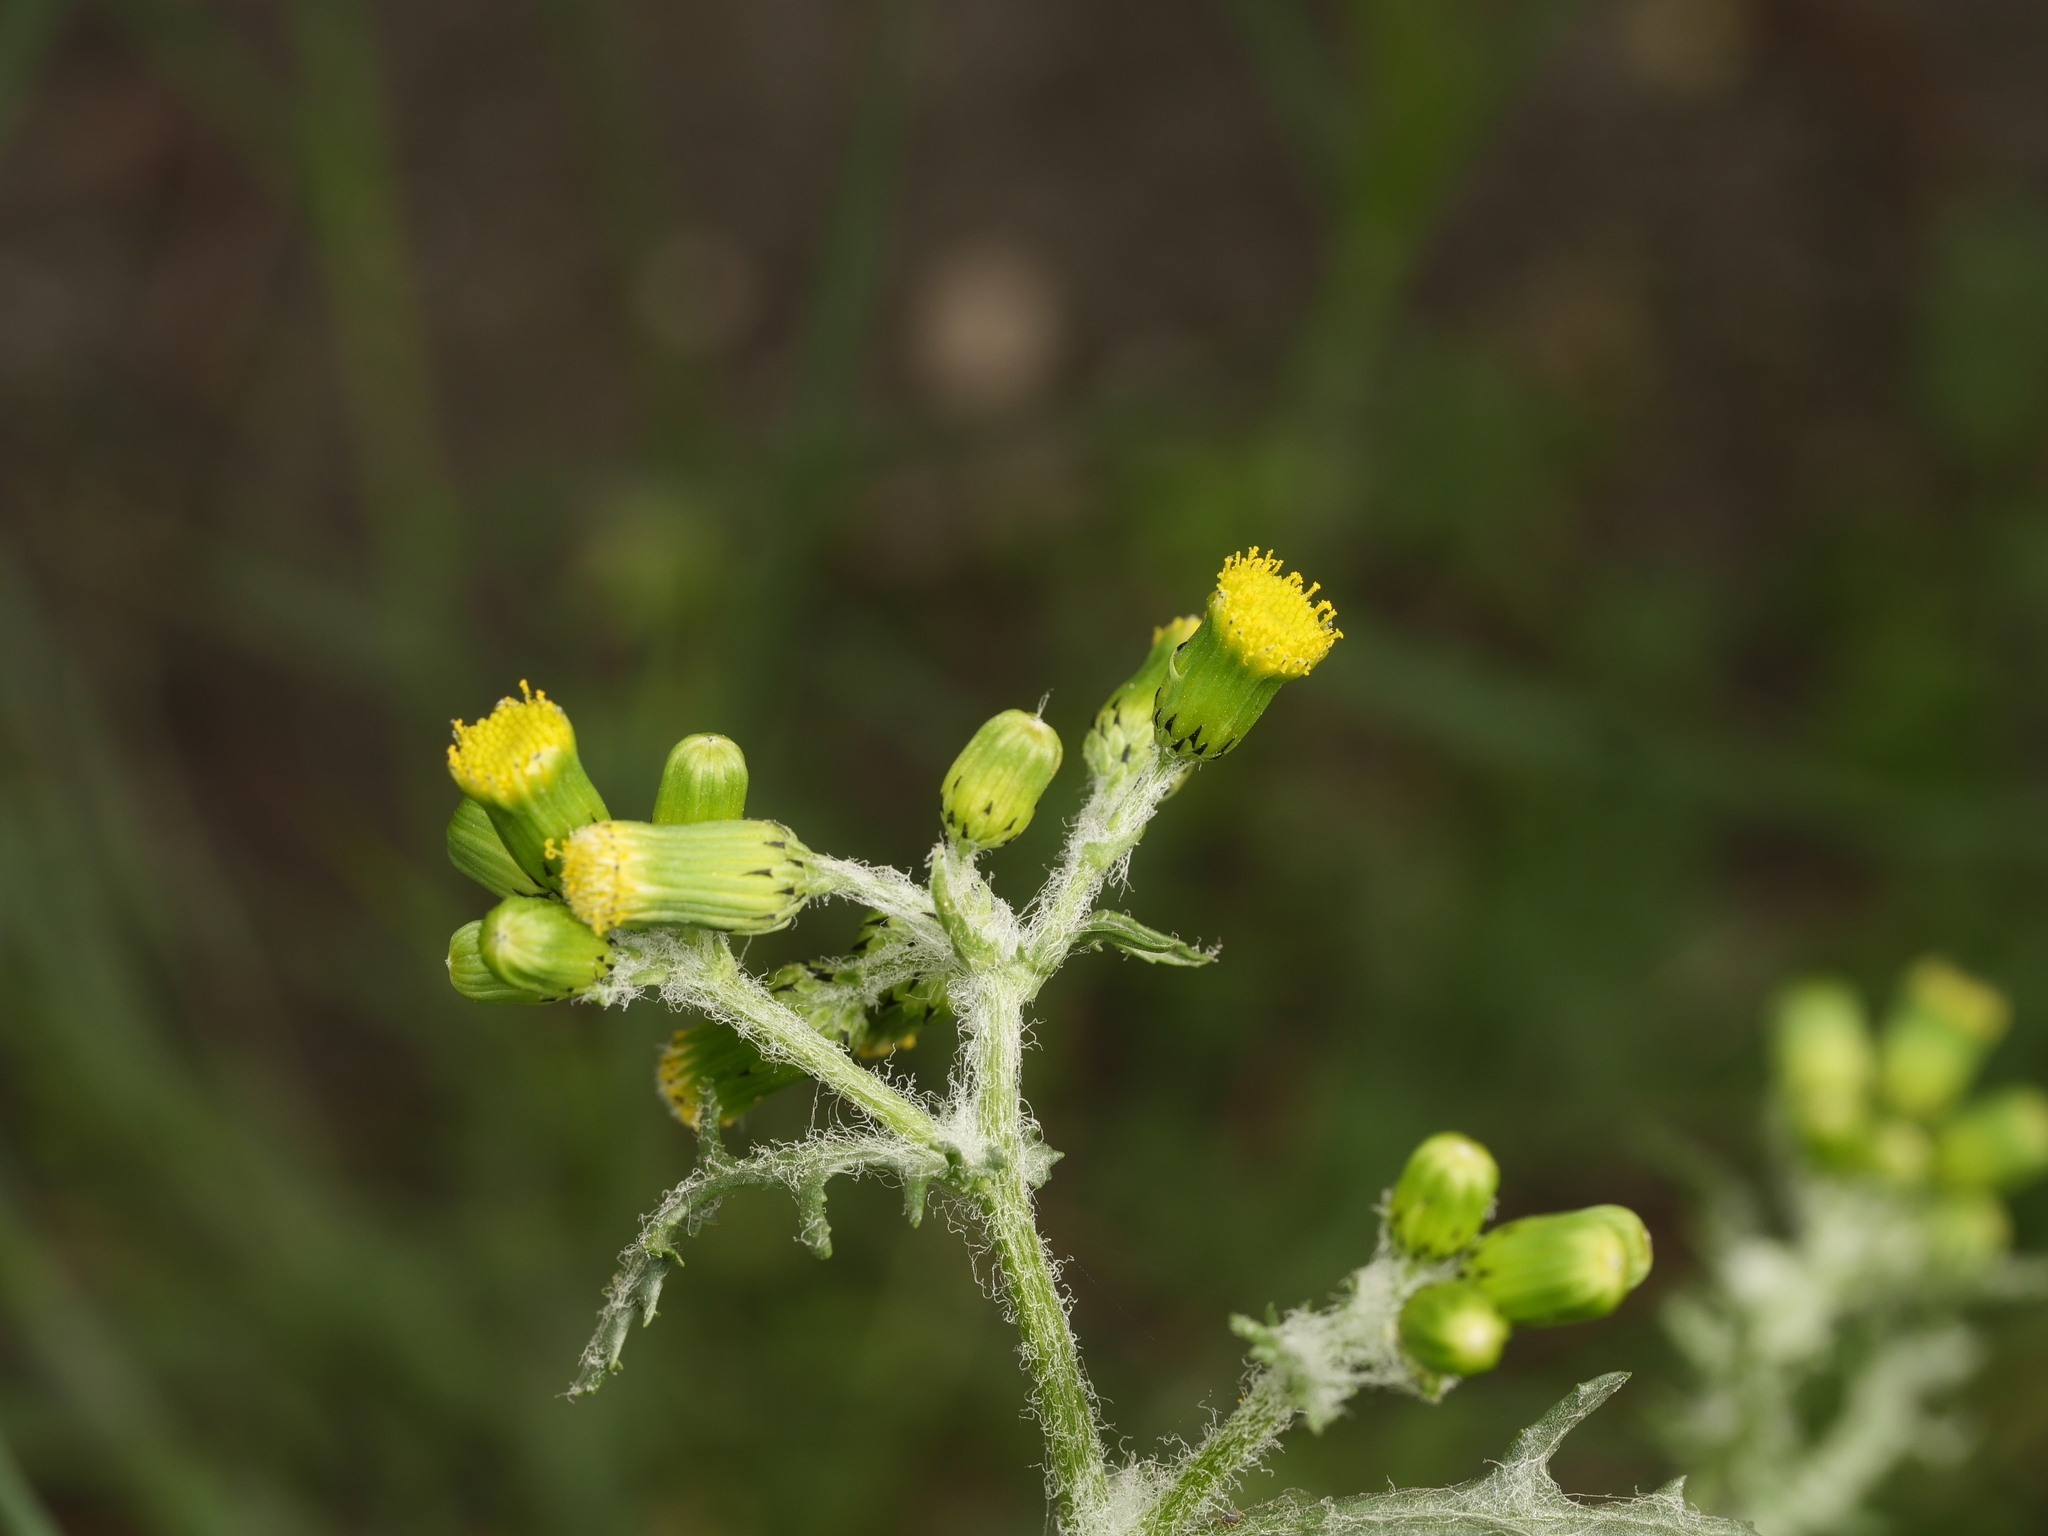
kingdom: Plantae
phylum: Tracheophyta
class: Magnoliopsida
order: Asterales
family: Asteraceae
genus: Senecio
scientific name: Senecio vulgaris
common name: Old-man-in-the-spring
